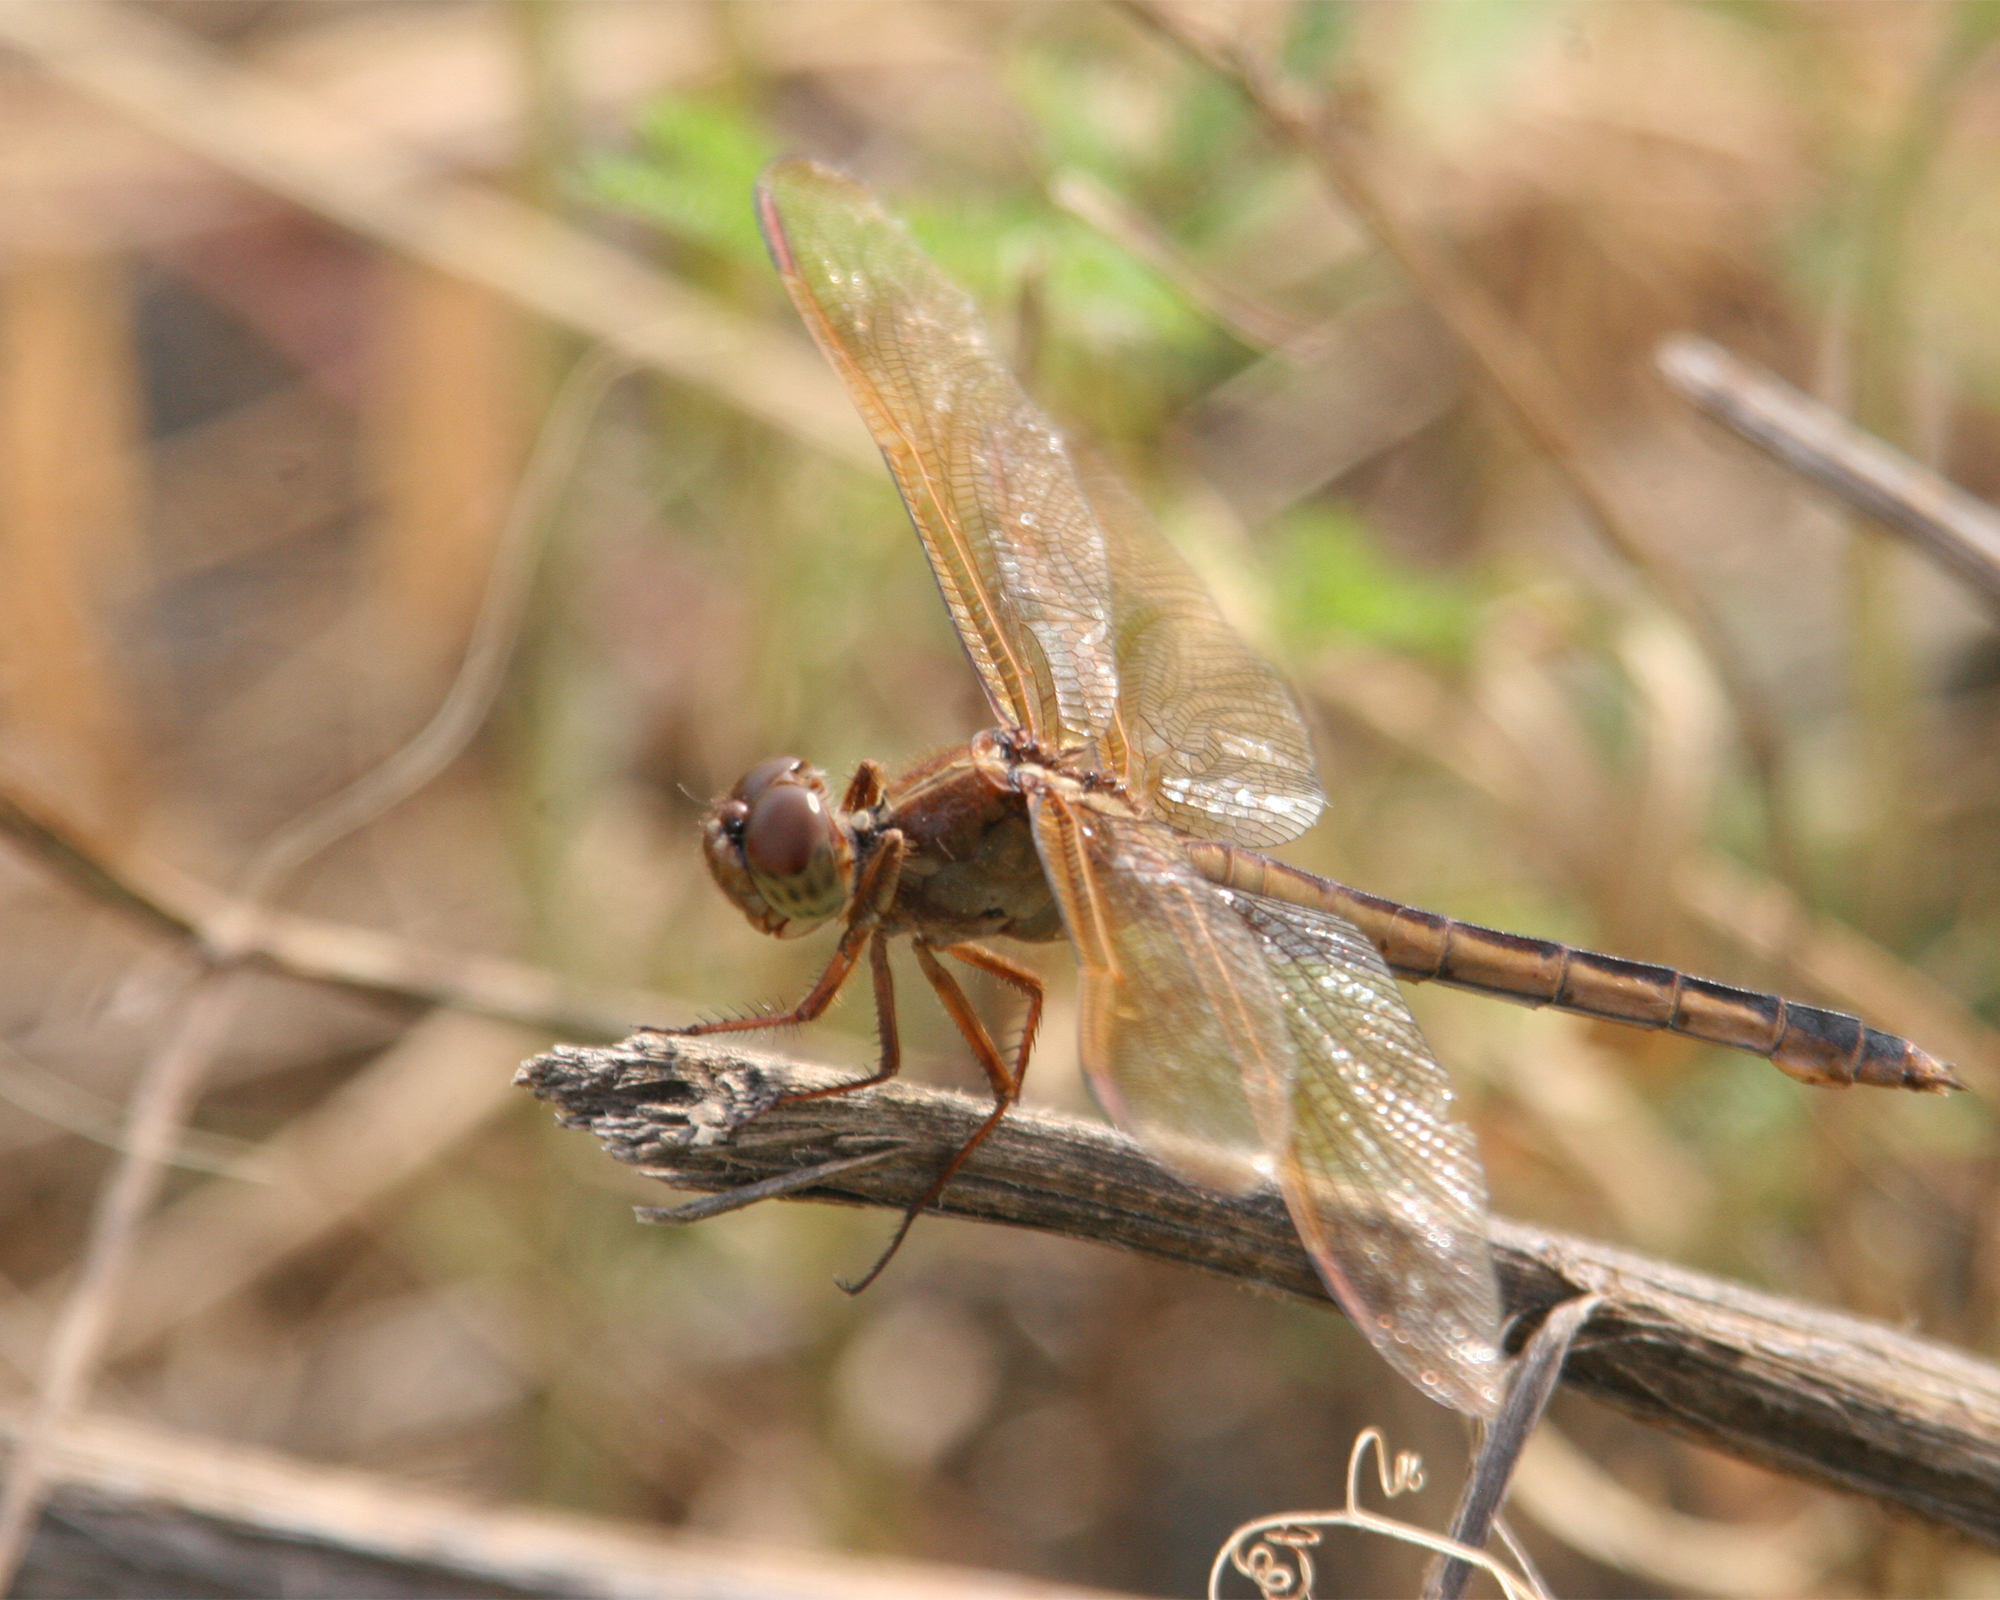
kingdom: Animalia
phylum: Arthropoda
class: Insecta
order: Odonata
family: Libellulidae
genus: Libellula
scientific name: Libellula needhami
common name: Needham's skimmer
